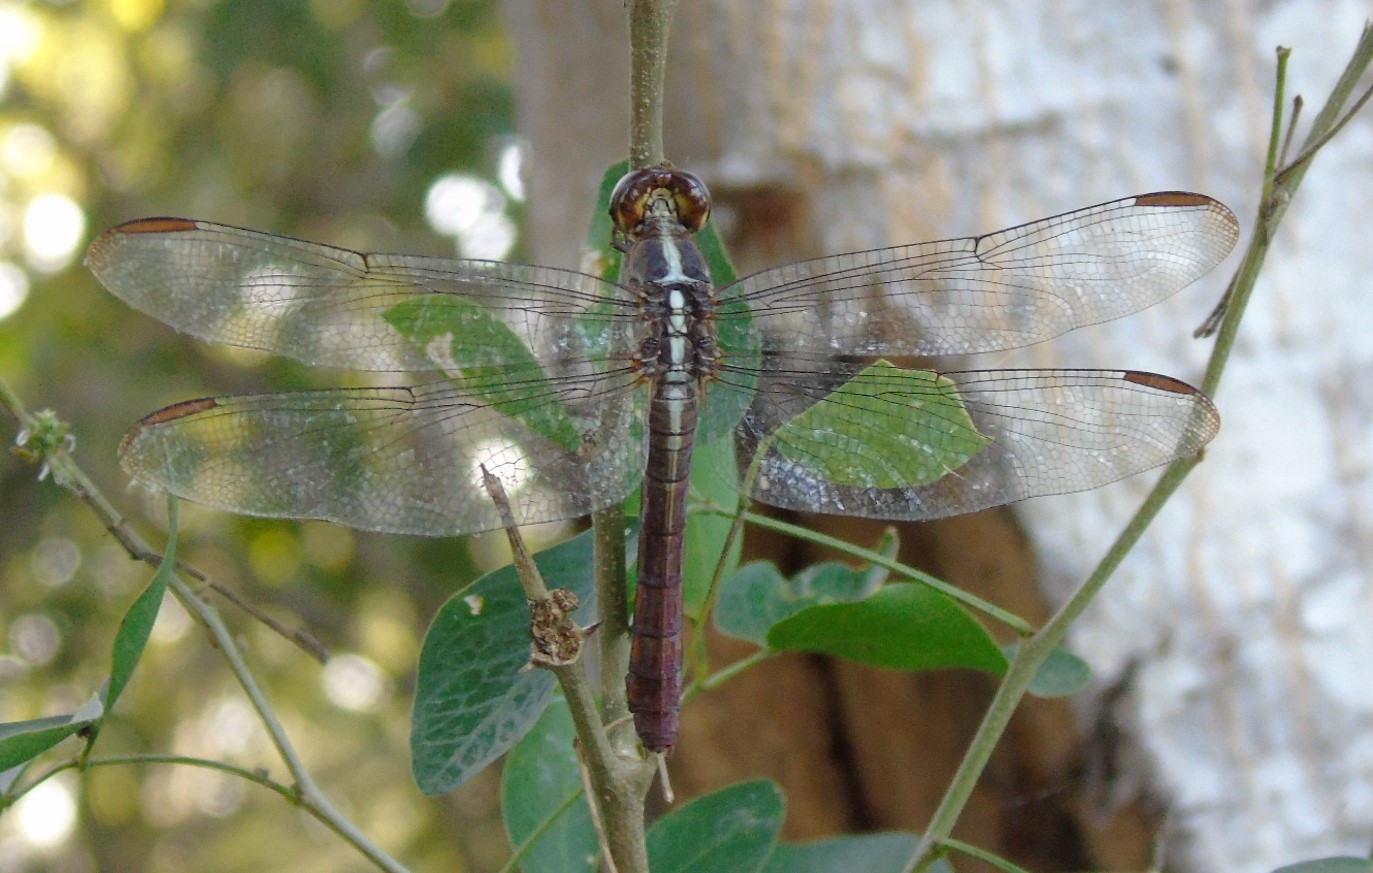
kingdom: Animalia
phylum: Arthropoda
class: Insecta
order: Odonata
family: Libellulidae
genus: Orthemis
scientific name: Orthemis ferruginea
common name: Roseate skimmer
